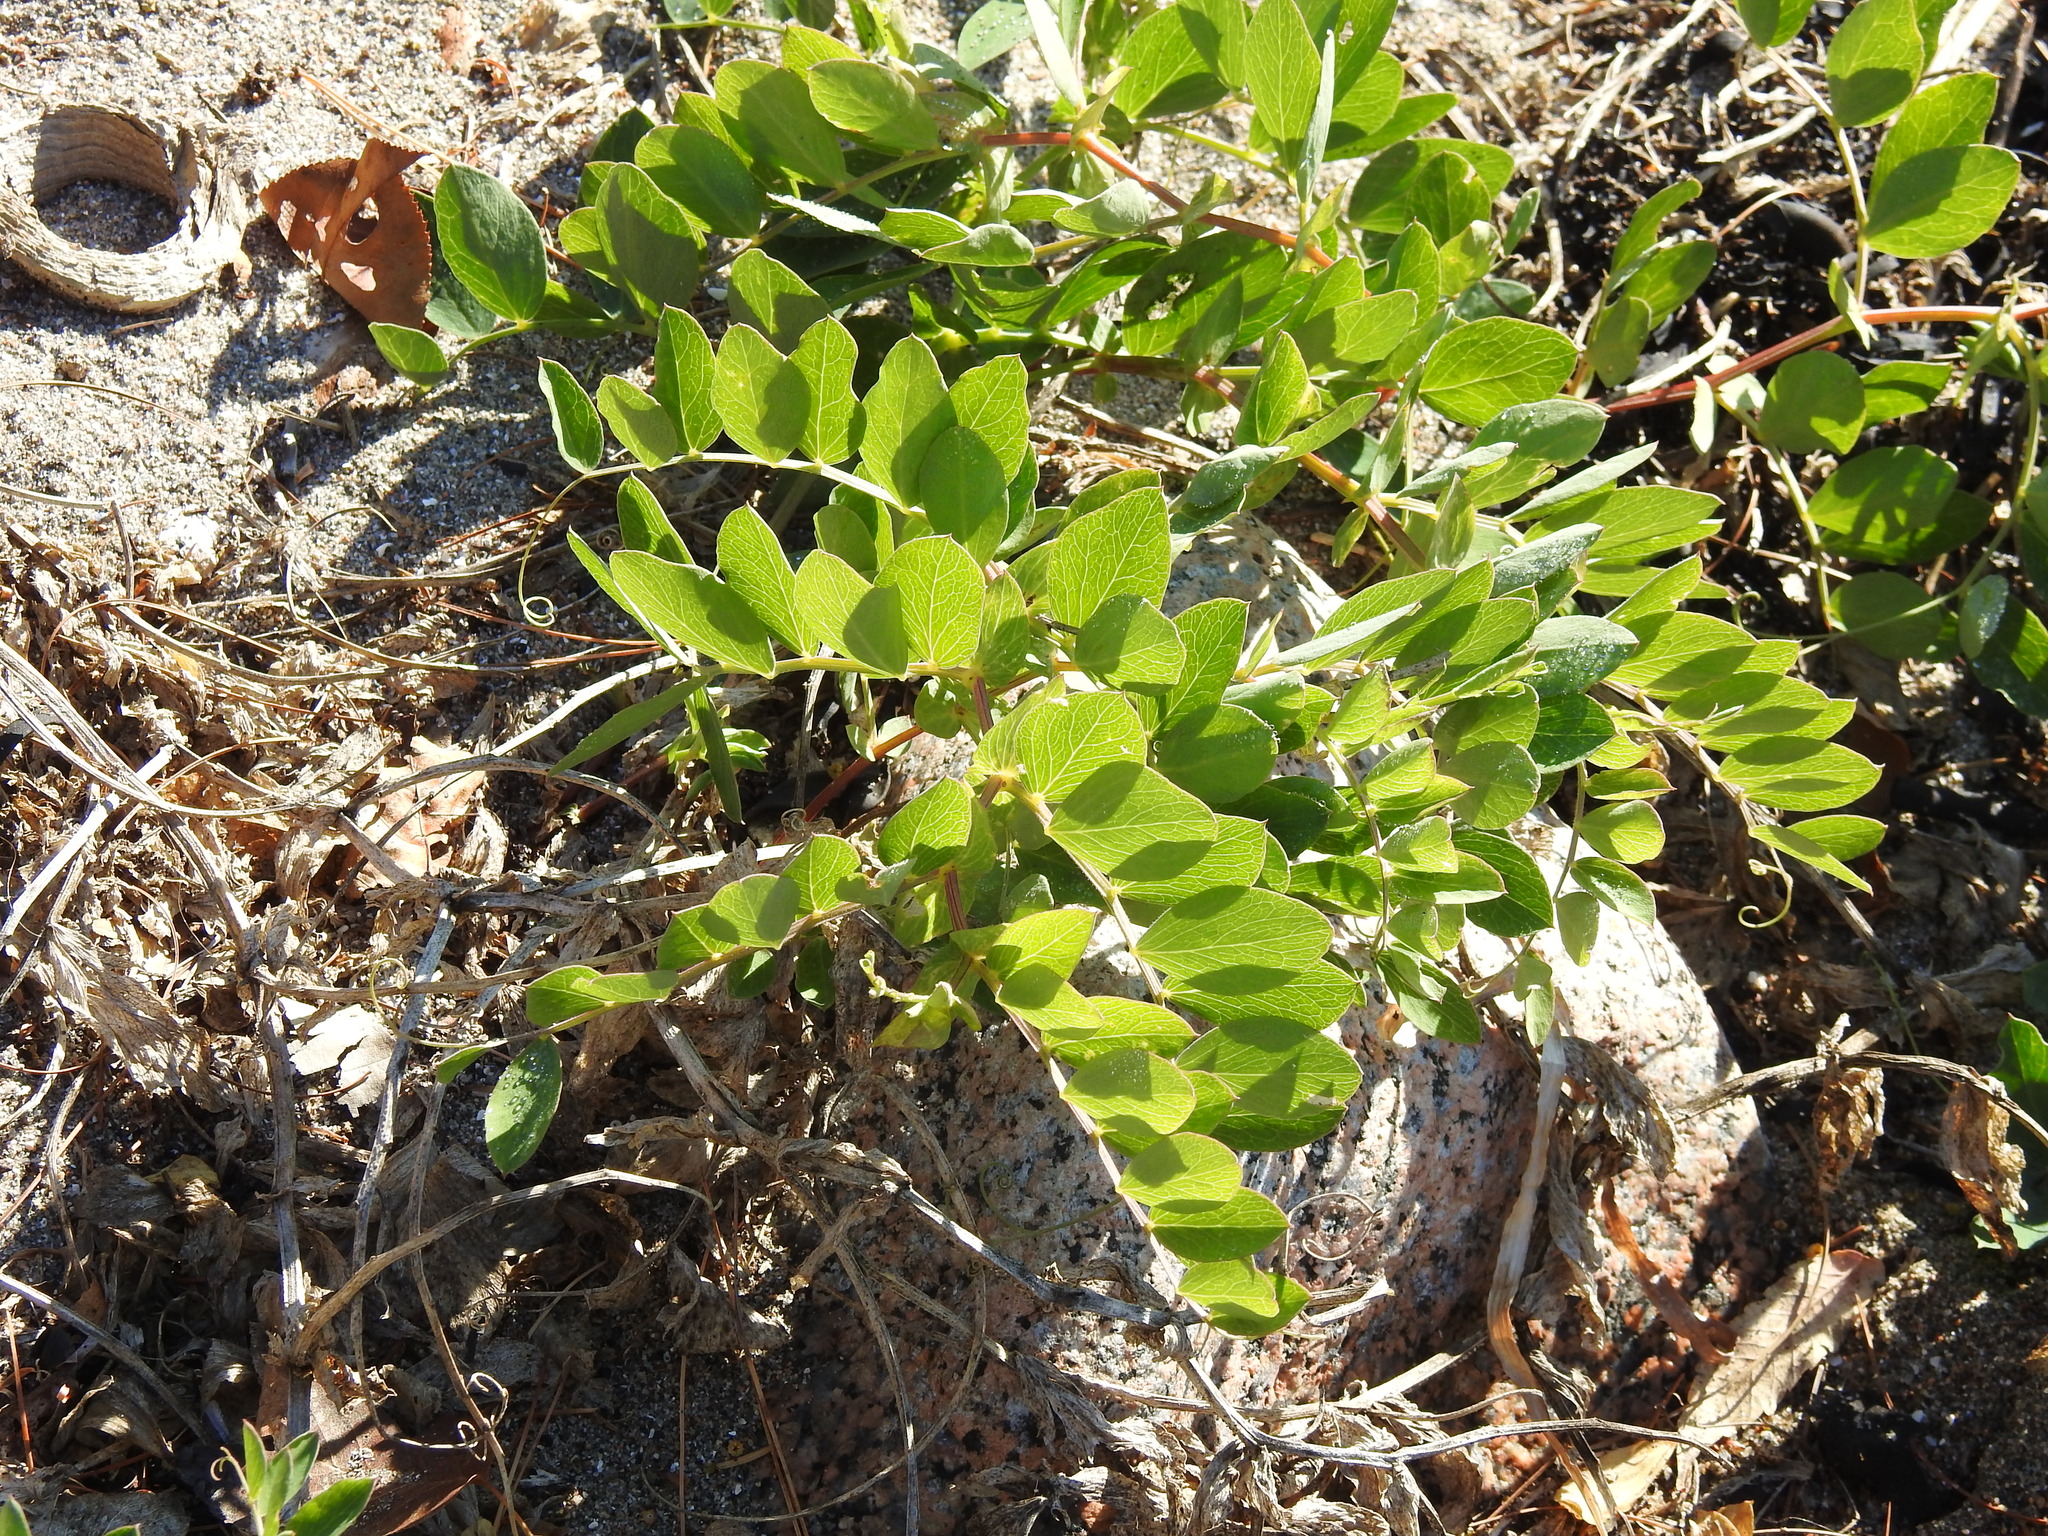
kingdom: Plantae
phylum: Tracheophyta
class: Magnoliopsida
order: Fabales
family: Fabaceae
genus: Lathyrus
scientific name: Lathyrus japonicus
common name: Sea pea
